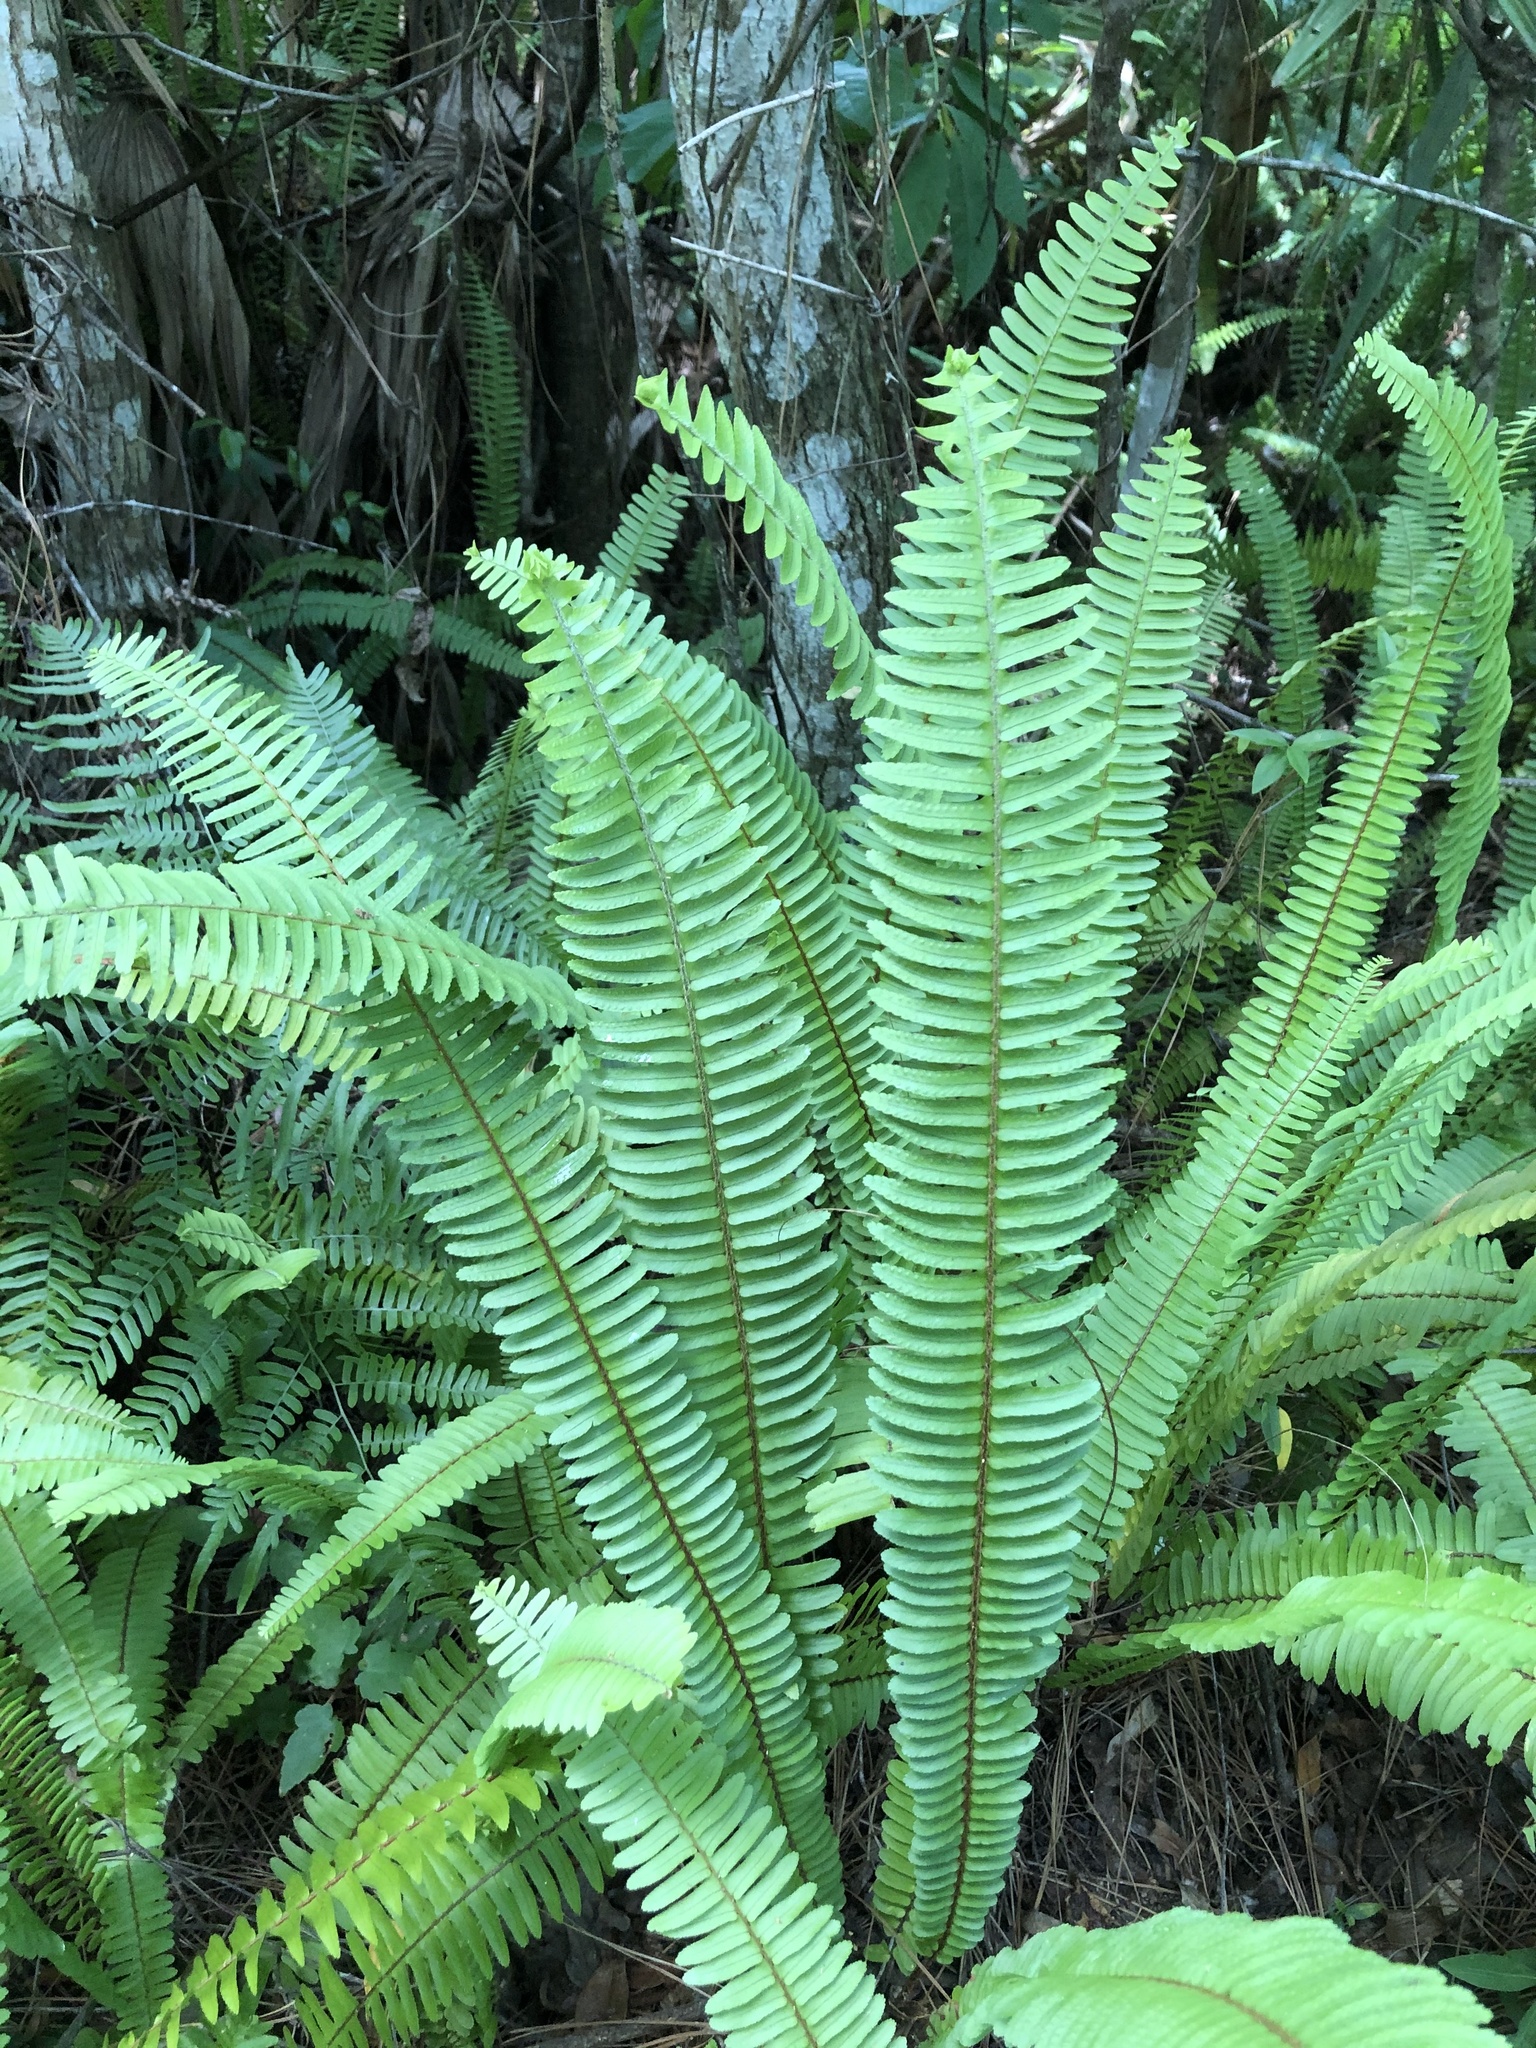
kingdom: Plantae
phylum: Tracheophyta
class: Polypodiopsida
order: Polypodiales
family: Nephrolepidaceae
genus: Nephrolepis
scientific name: Nephrolepis cordifolia
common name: Narrow swordfern
